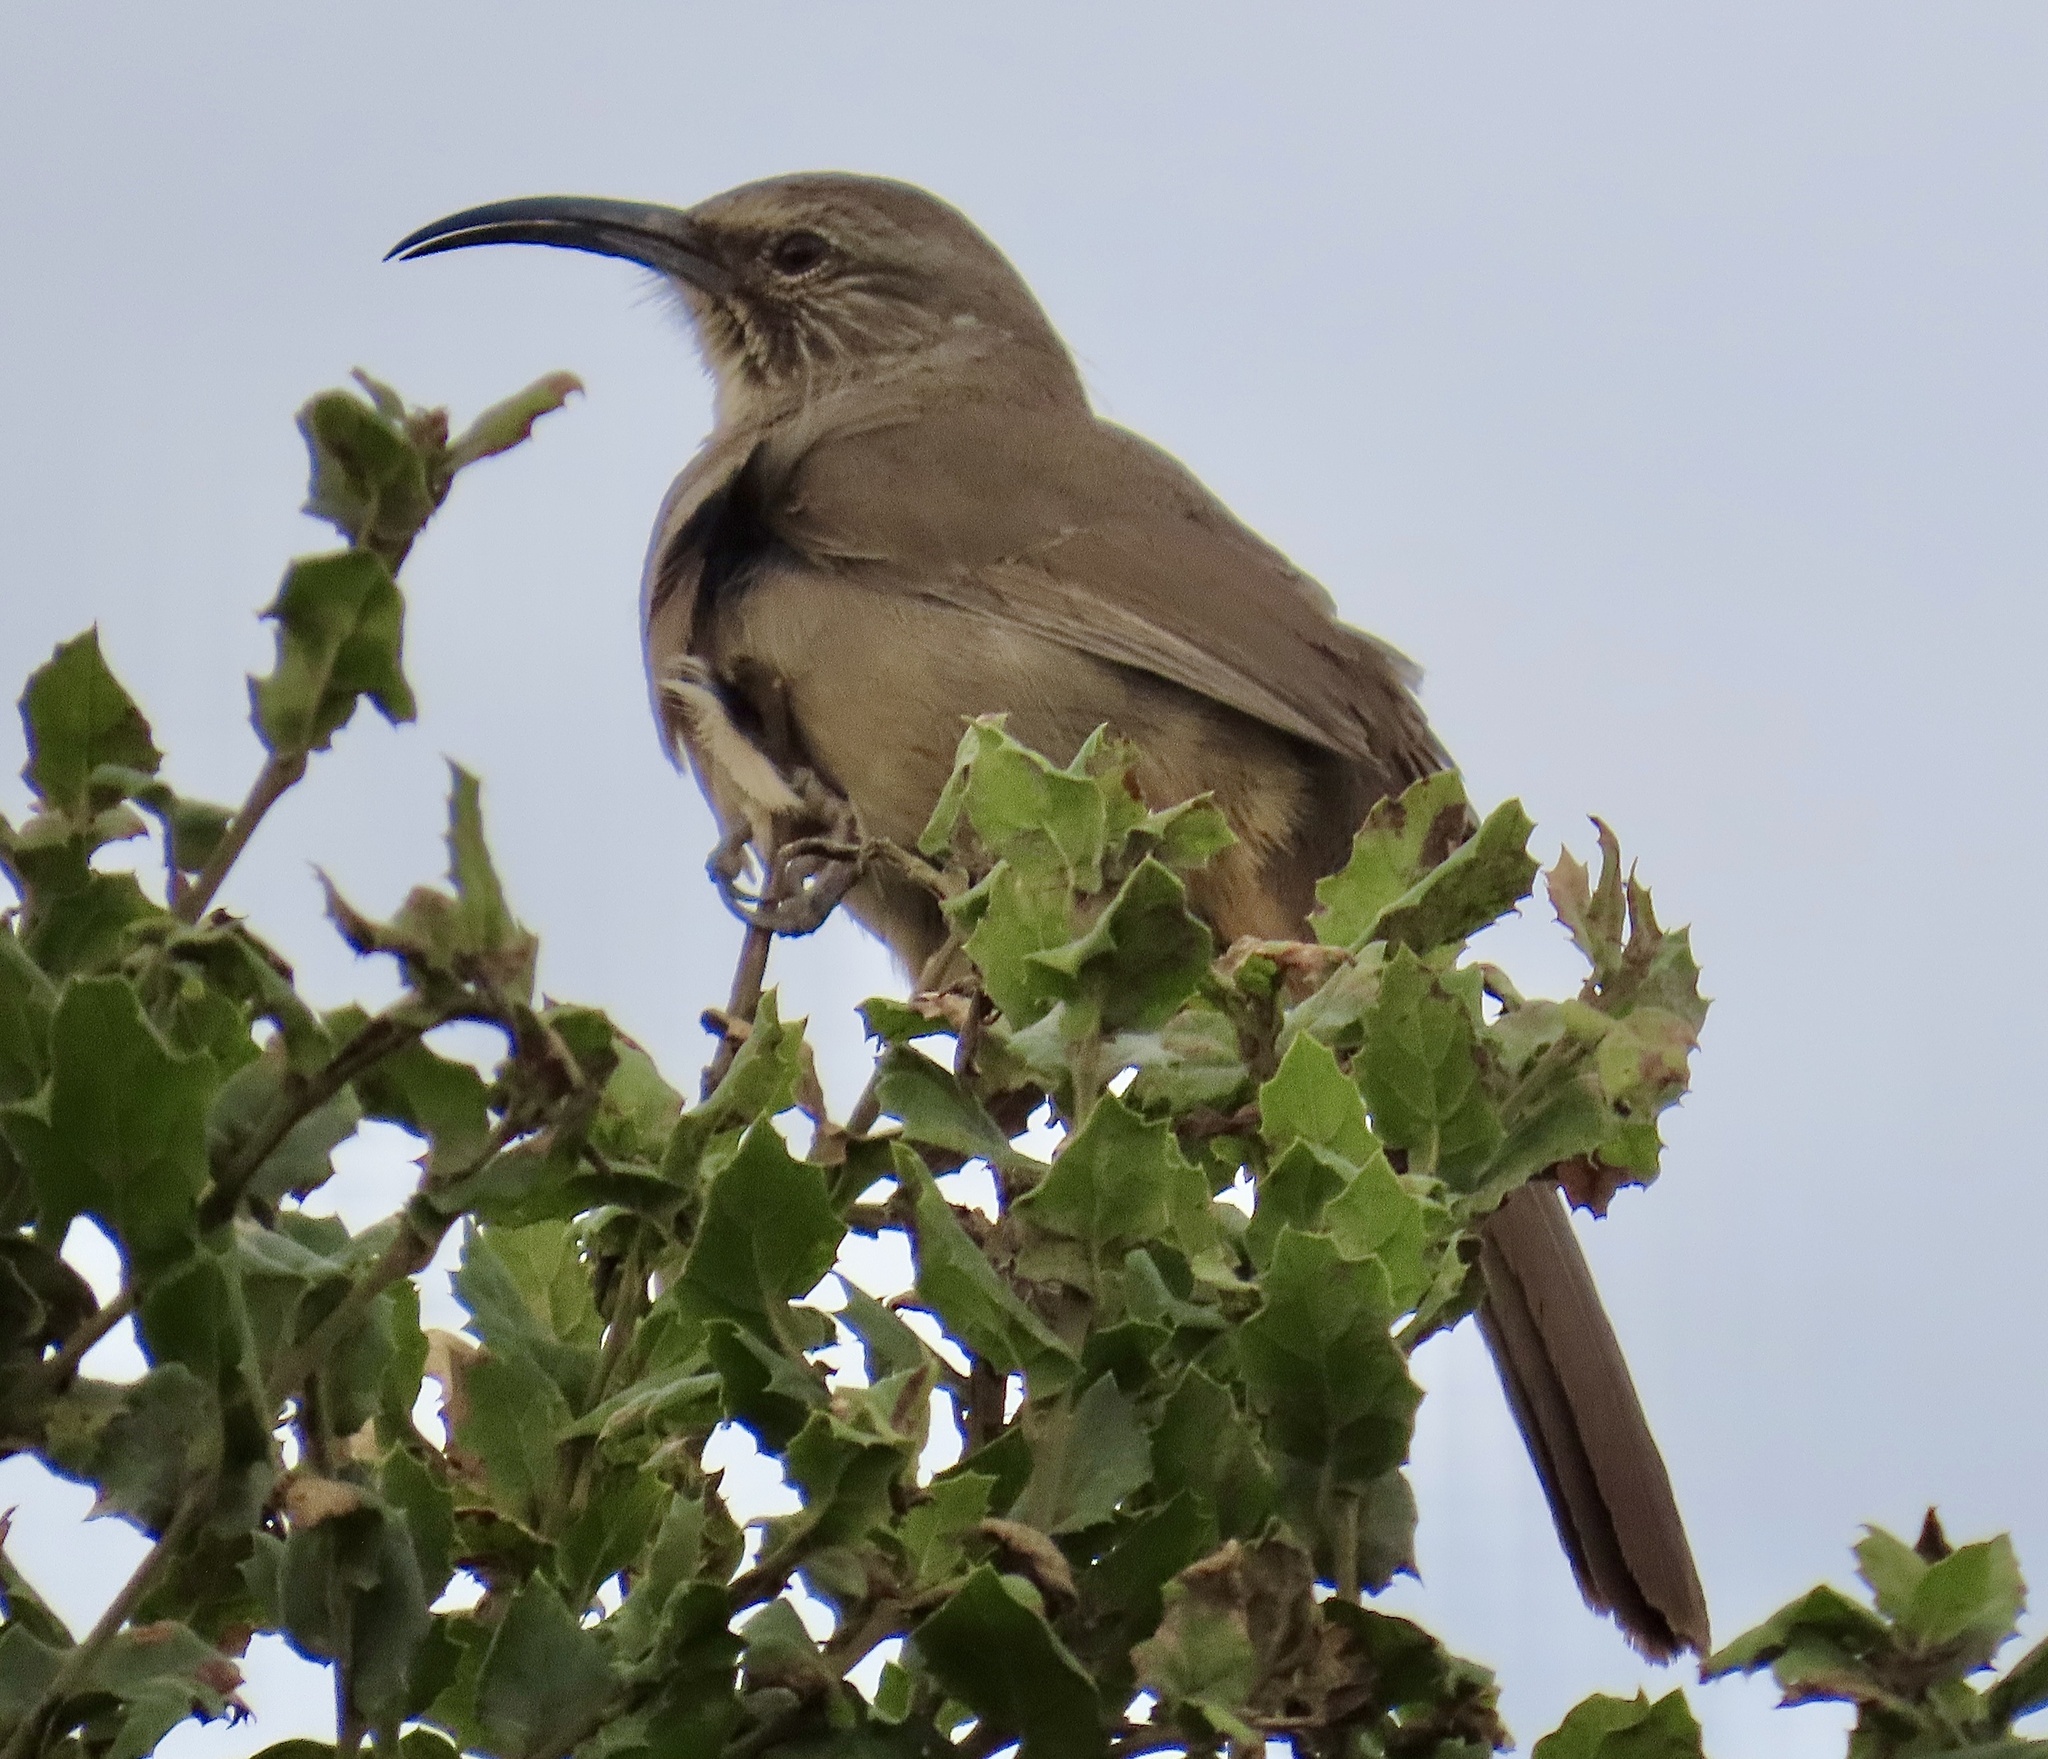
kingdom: Animalia
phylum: Chordata
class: Aves
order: Passeriformes
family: Mimidae
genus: Toxostoma
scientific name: Toxostoma redivivum
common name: California thrasher
